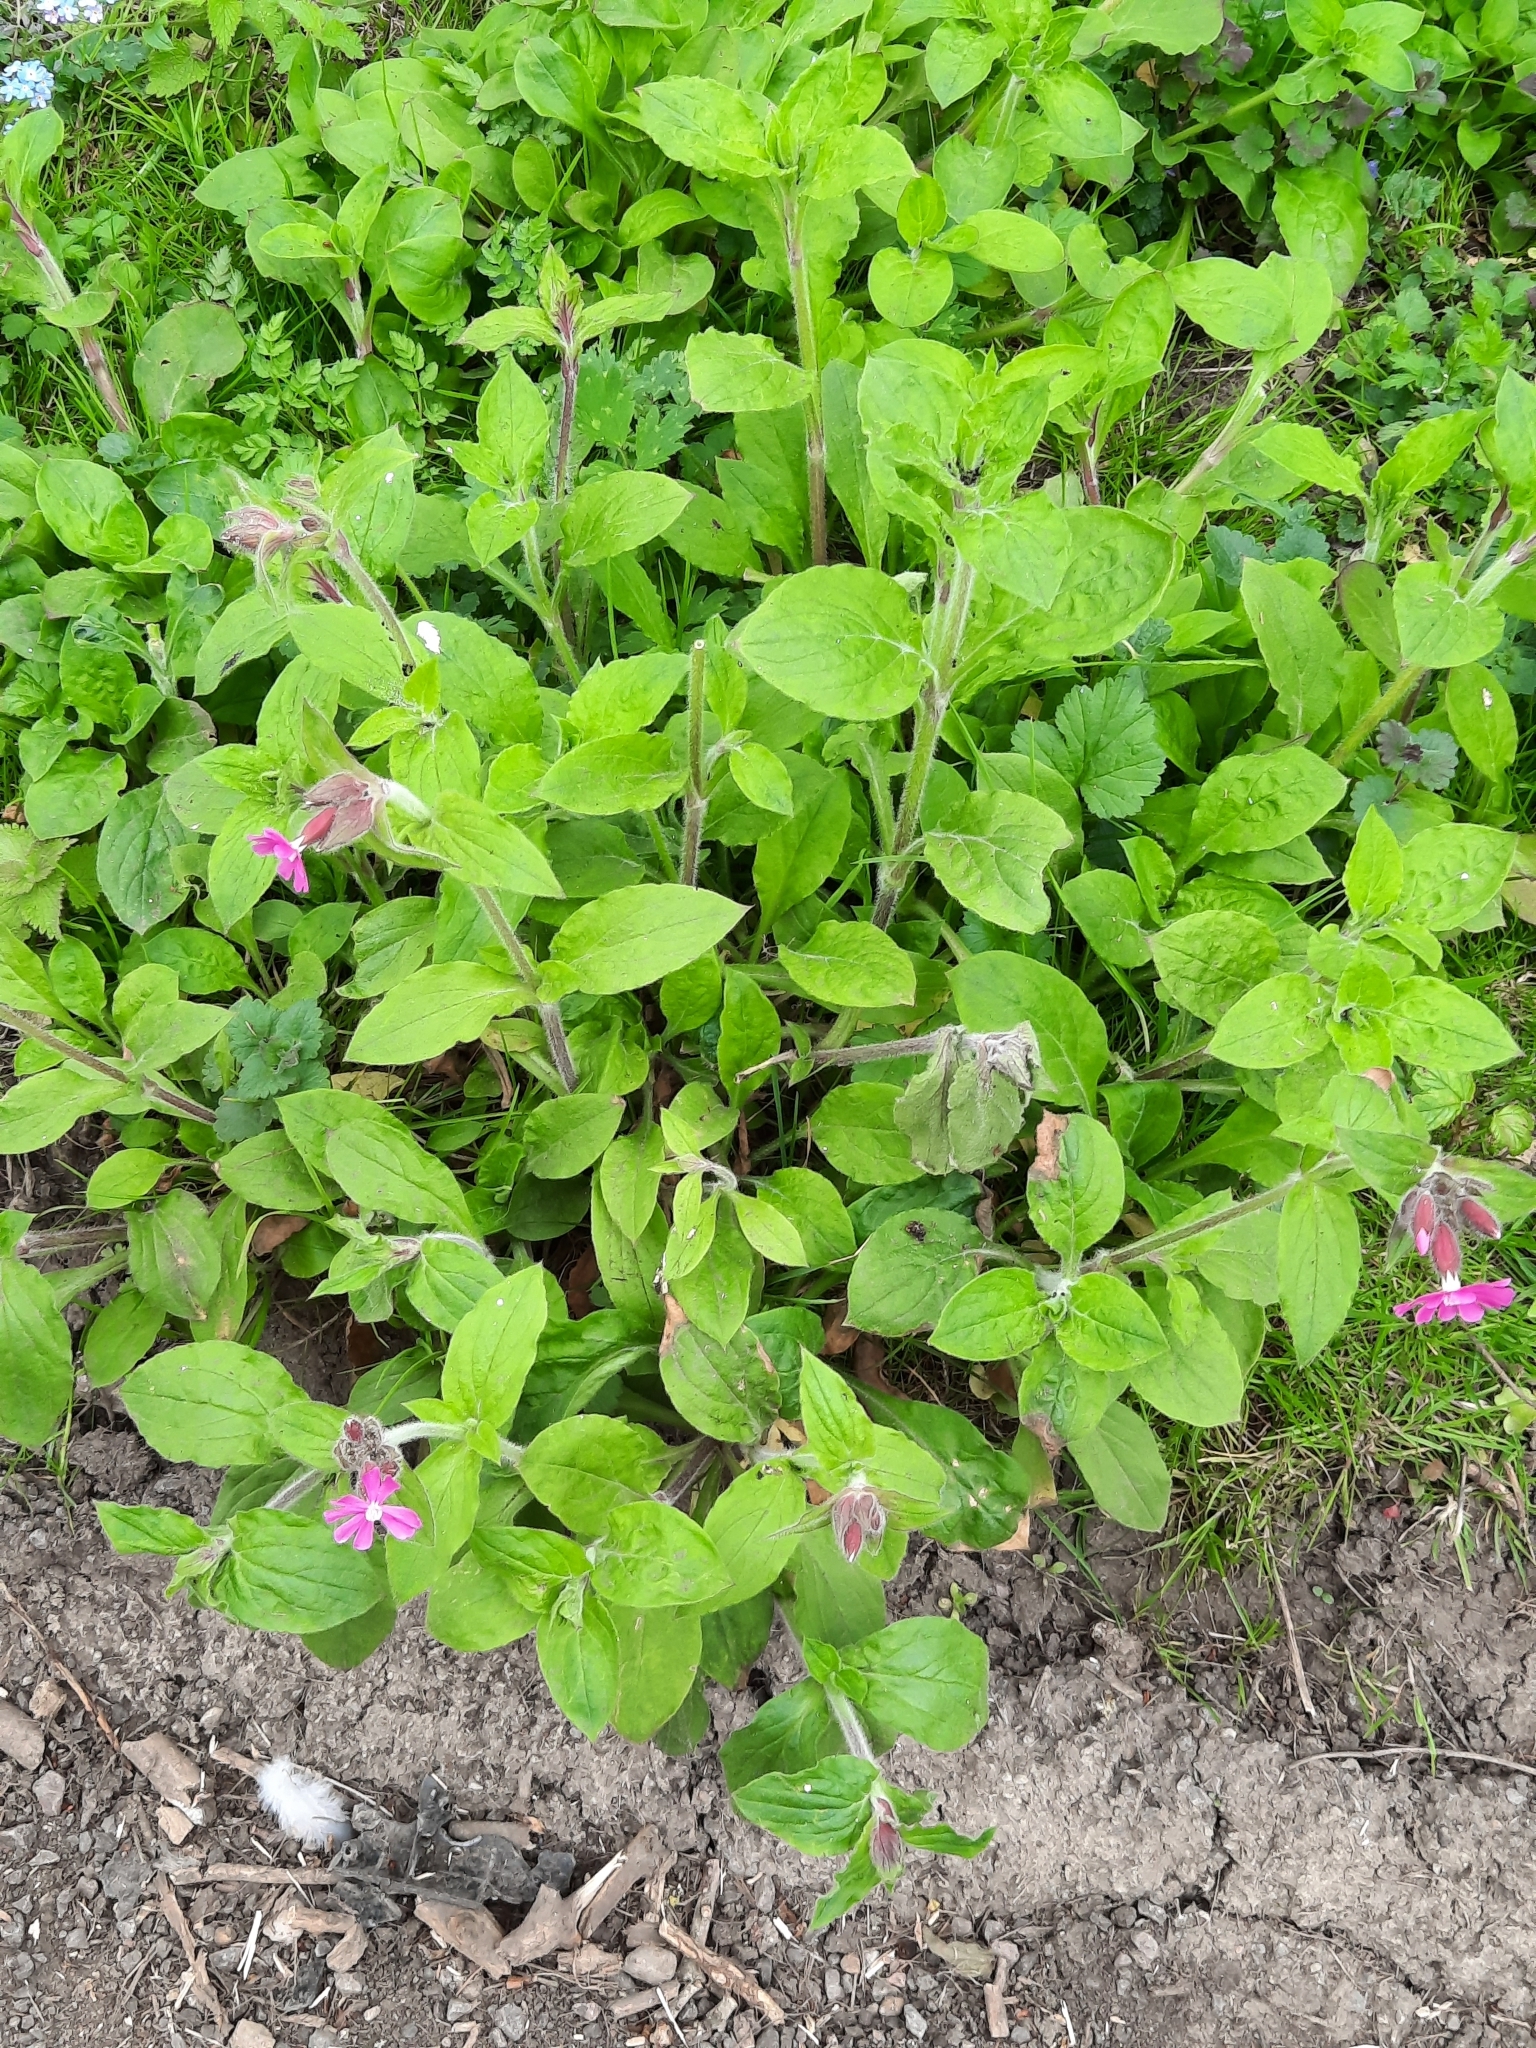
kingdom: Plantae
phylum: Tracheophyta
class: Magnoliopsida
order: Caryophyllales
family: Caryophyllaceae
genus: Silene
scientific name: Silene dioica
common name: Red campion
